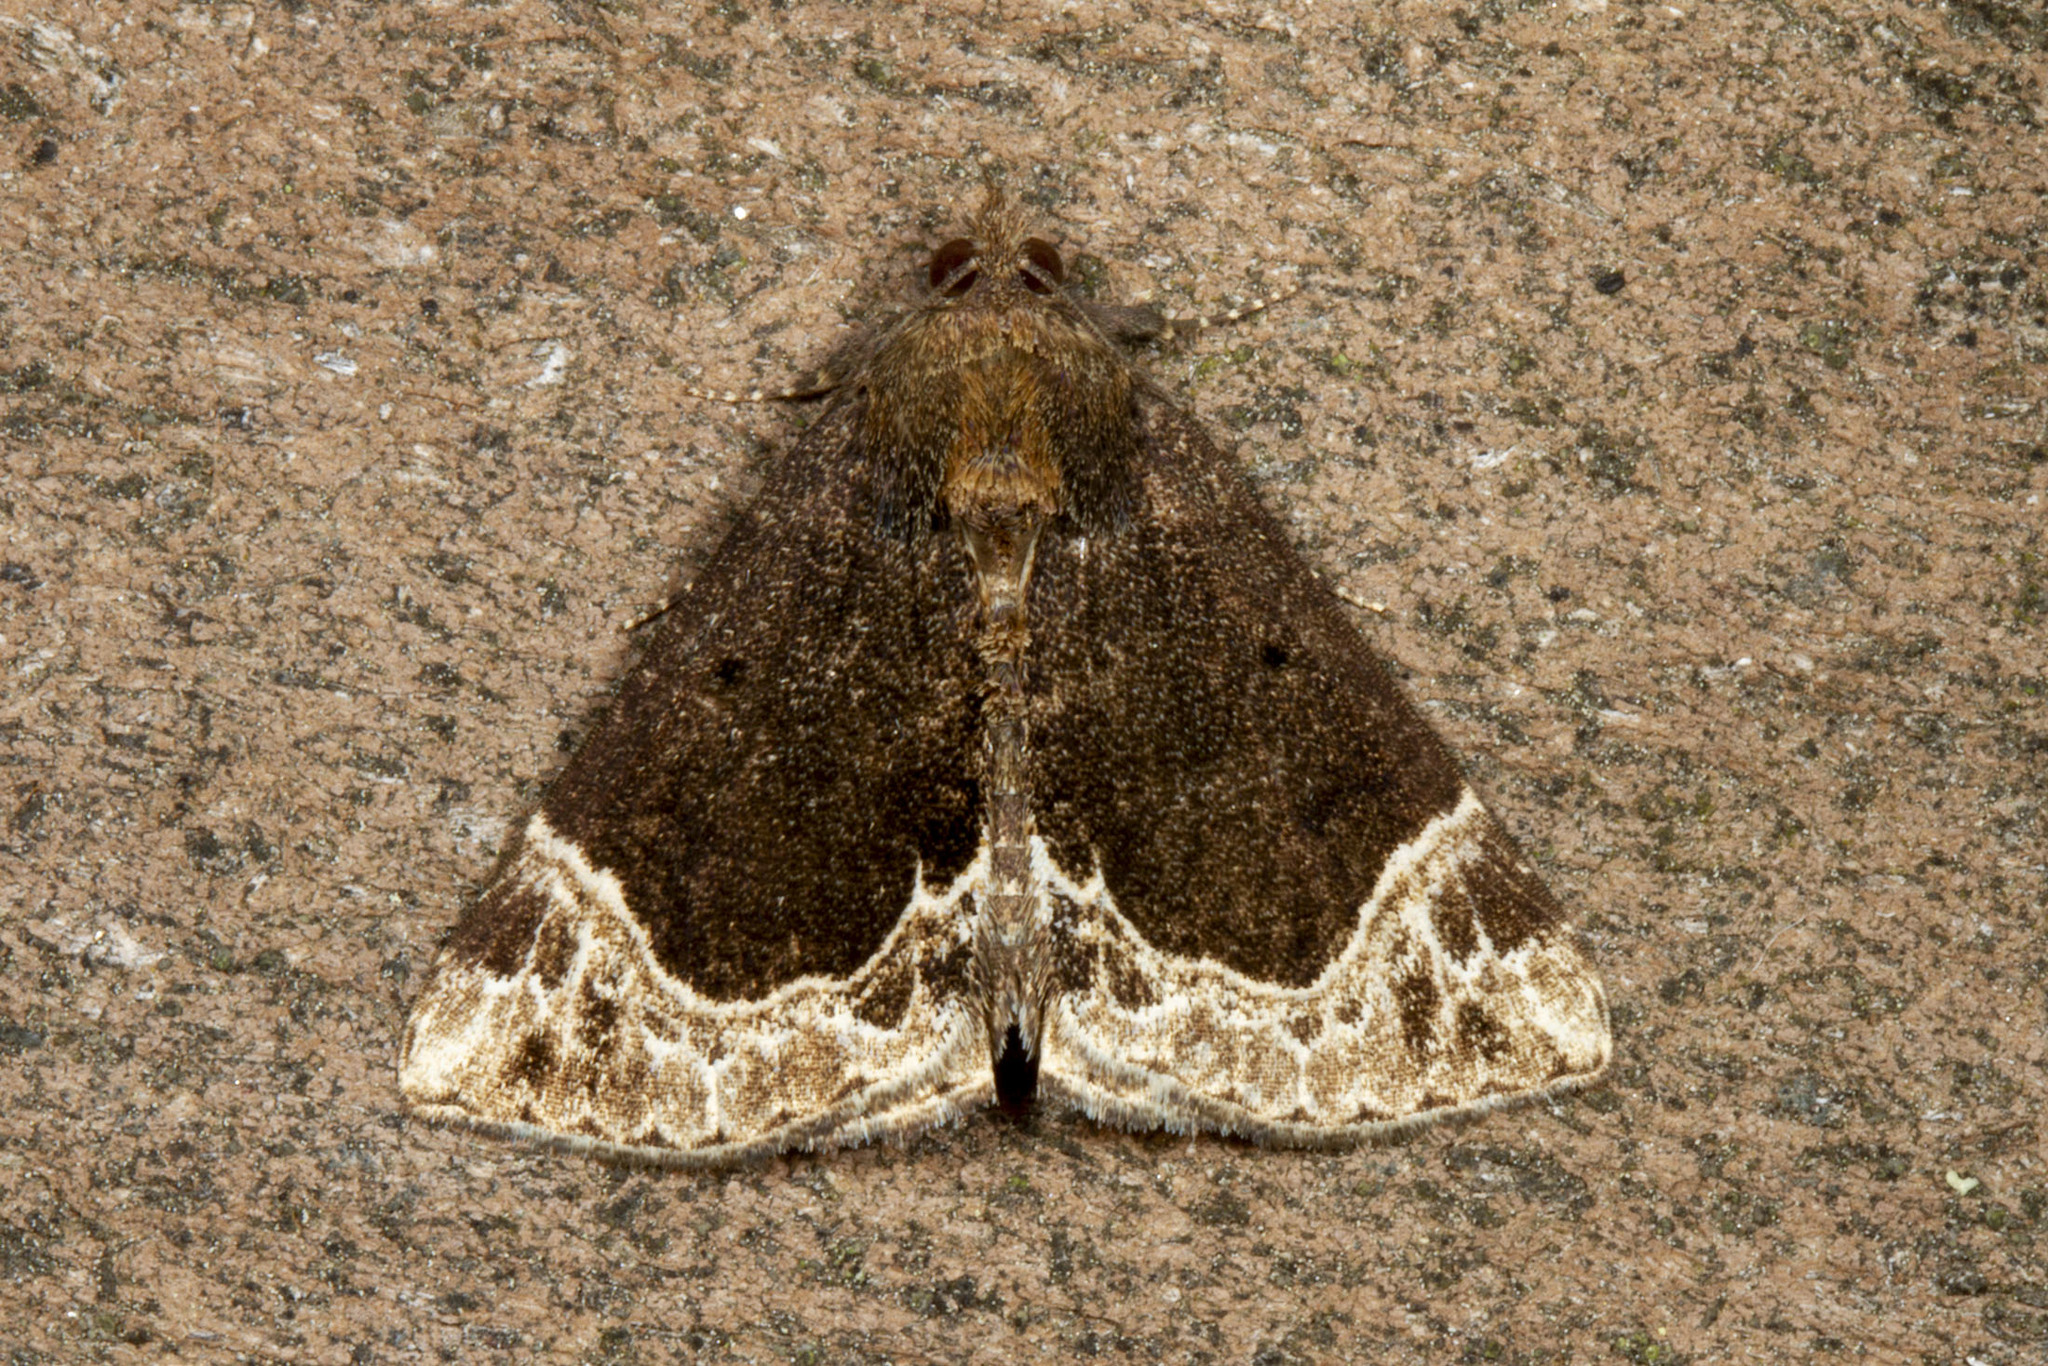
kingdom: Animalia
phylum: Arthropoda
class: Insecta
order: Lepidoptera
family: Erebidae
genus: Hypena
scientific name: Hypena abalienalis
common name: White-lined snout
